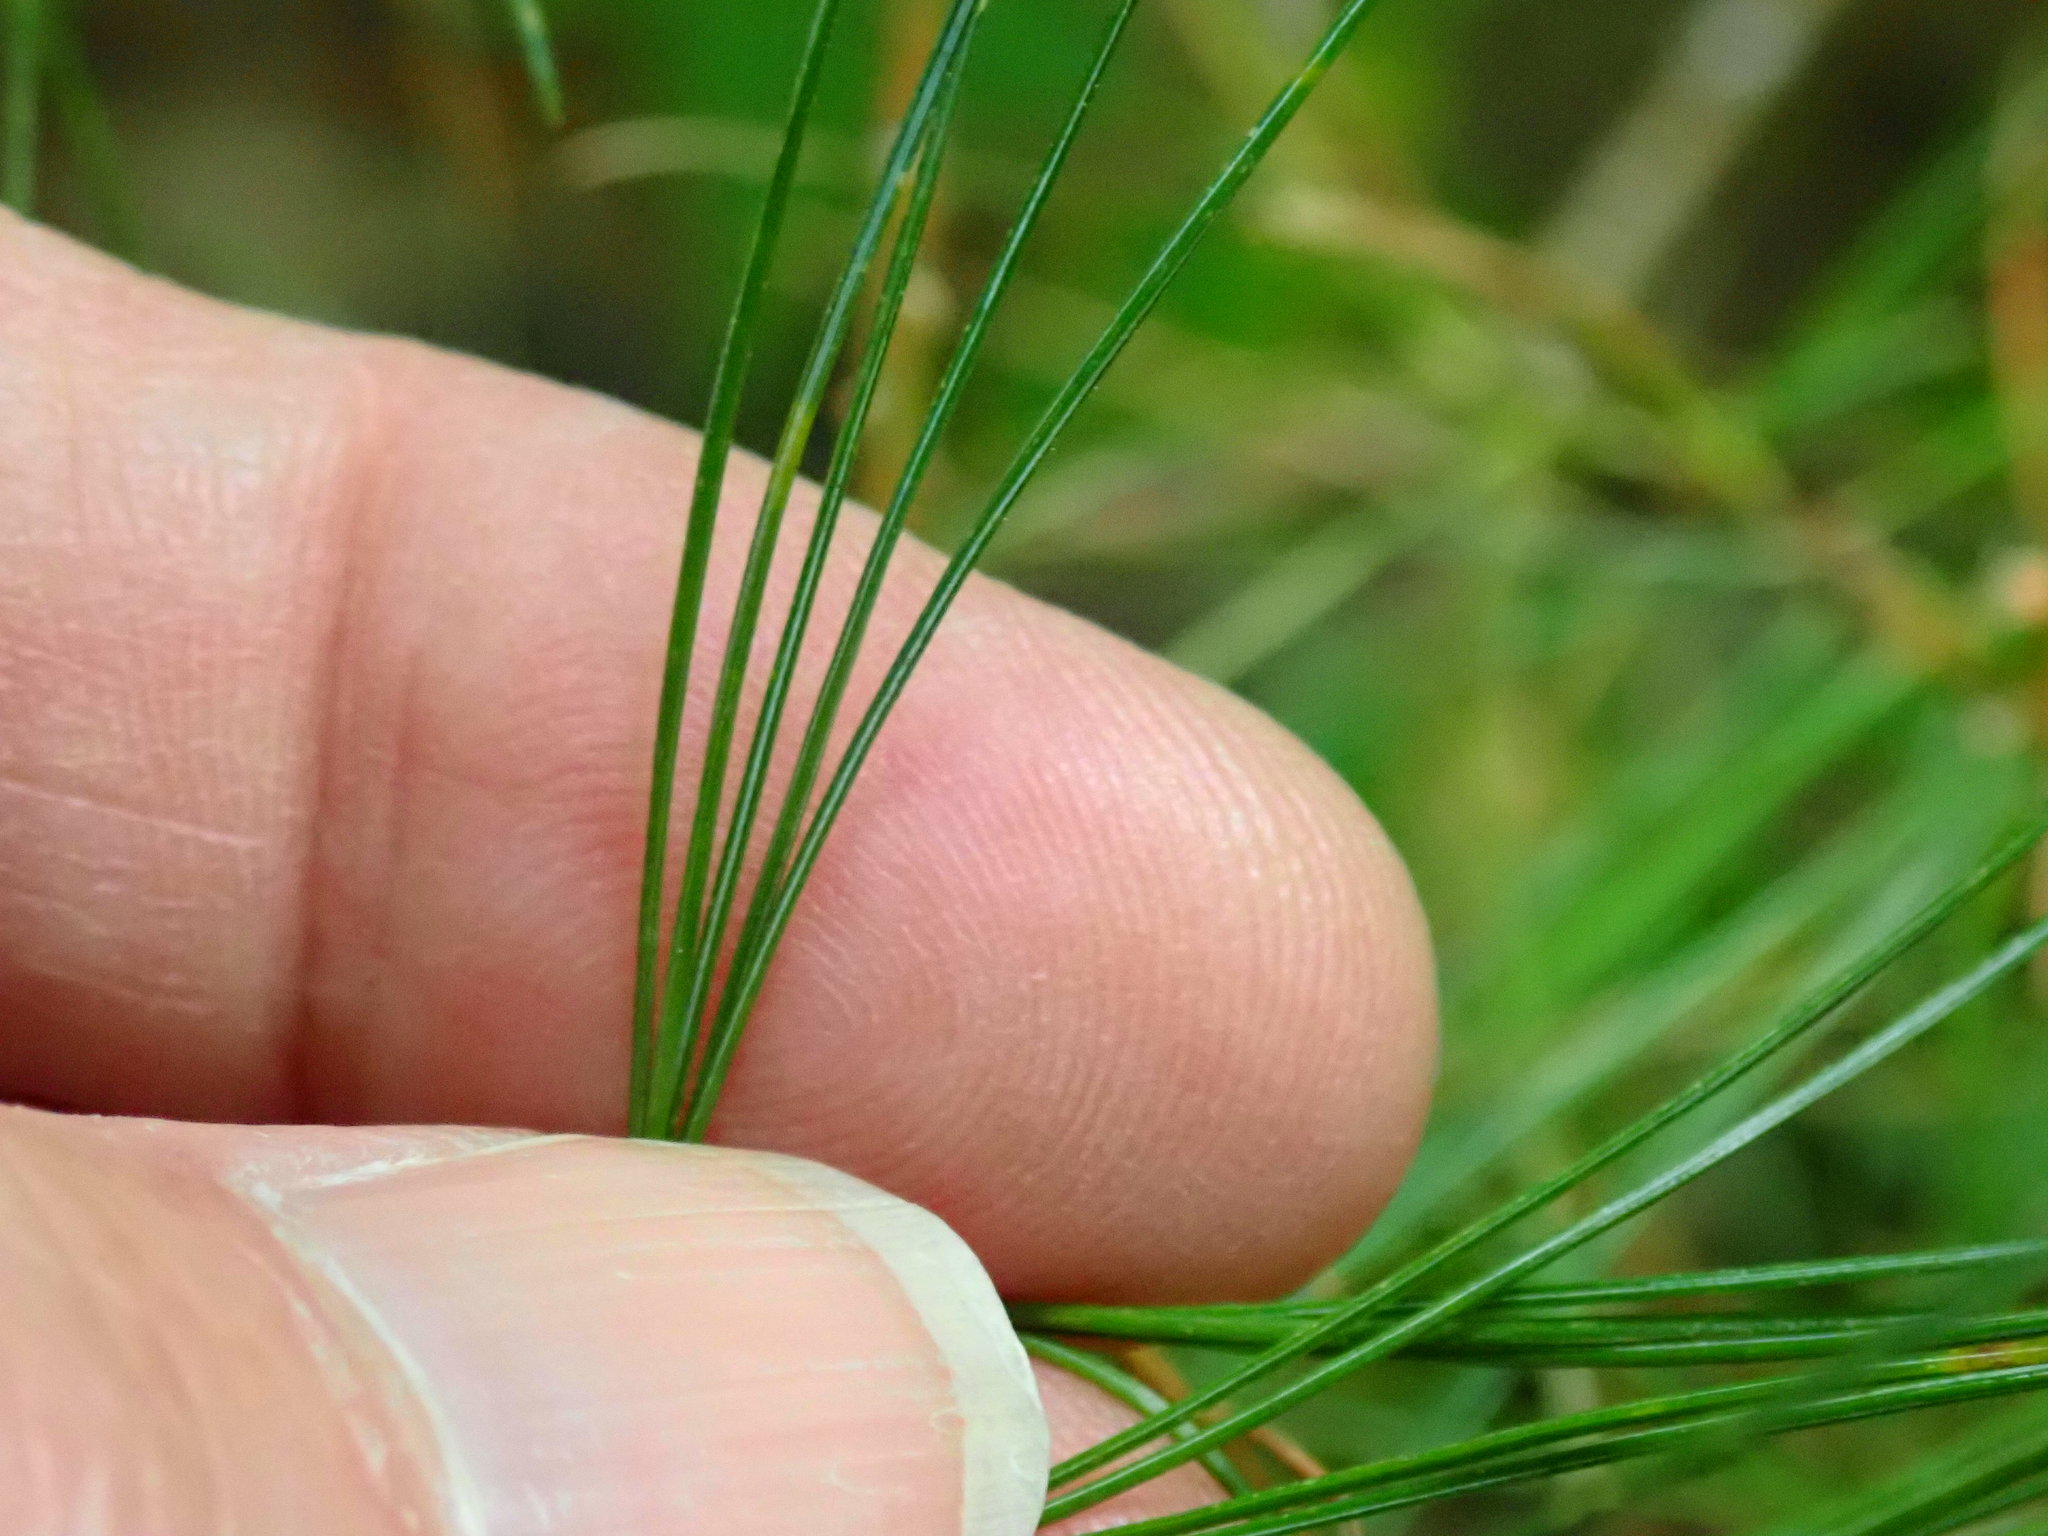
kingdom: Plantae
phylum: Tracheophyta
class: Pinopsida
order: Pinales
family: Pinaceae
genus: Pinus
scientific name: Pinus strobus
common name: Weymouth pine
